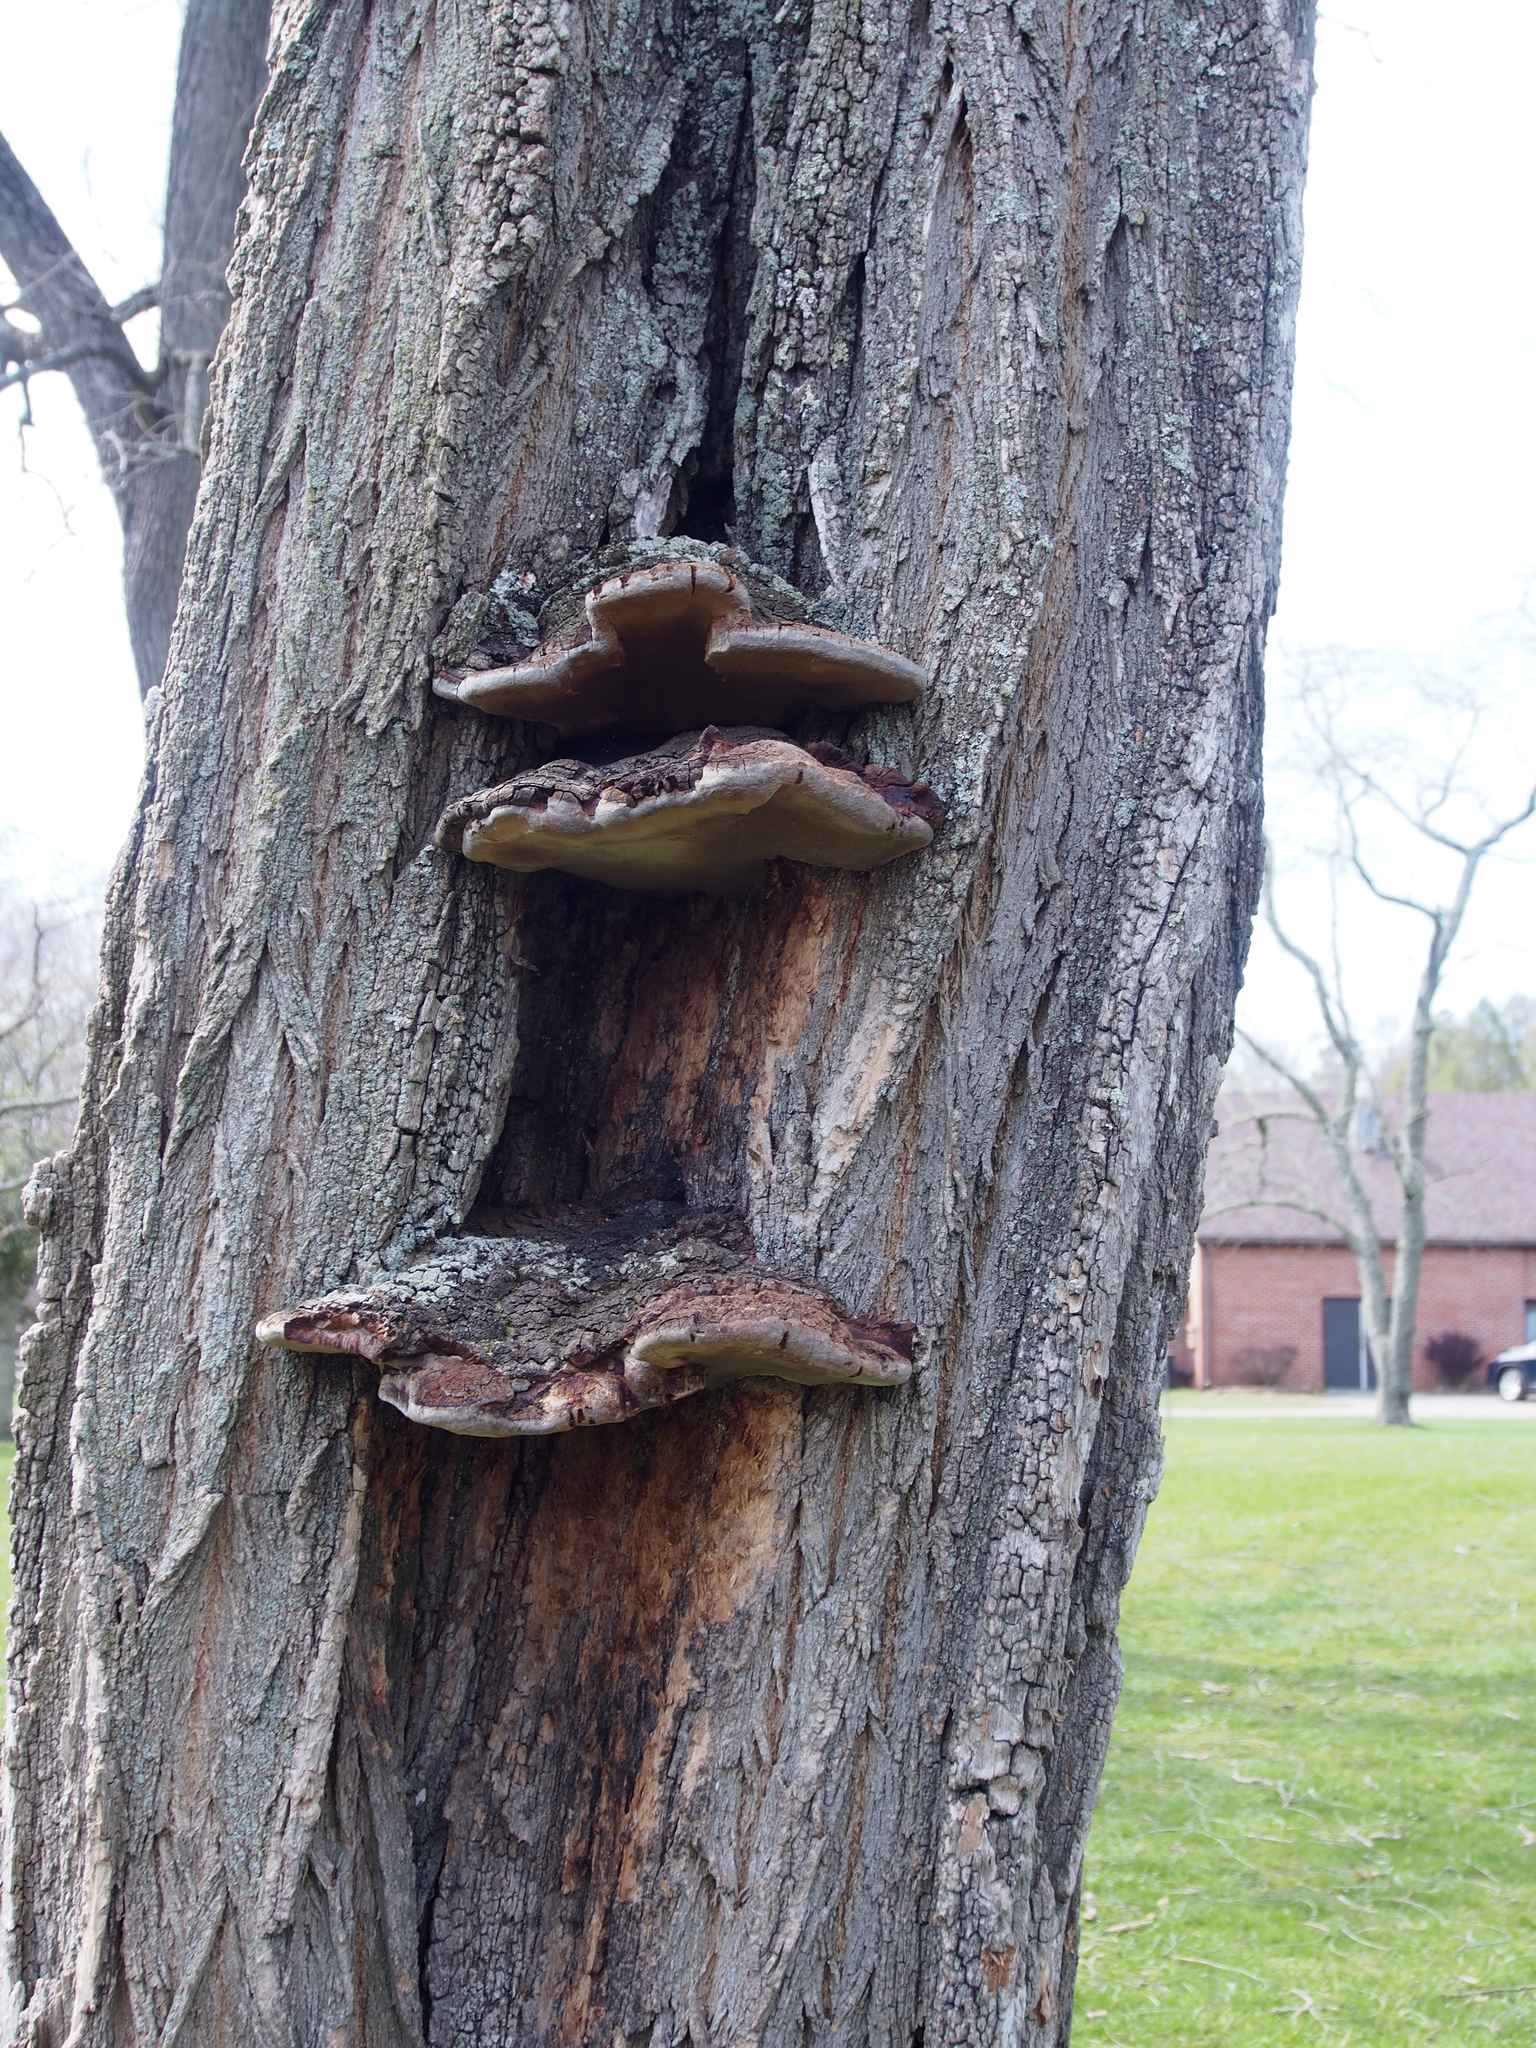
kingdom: Fungi
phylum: Basidiomycota
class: Agaricomycetes
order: Hymenochaetales
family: Hymenochaetaceae
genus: Phellinus
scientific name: Phellinus robiniae
